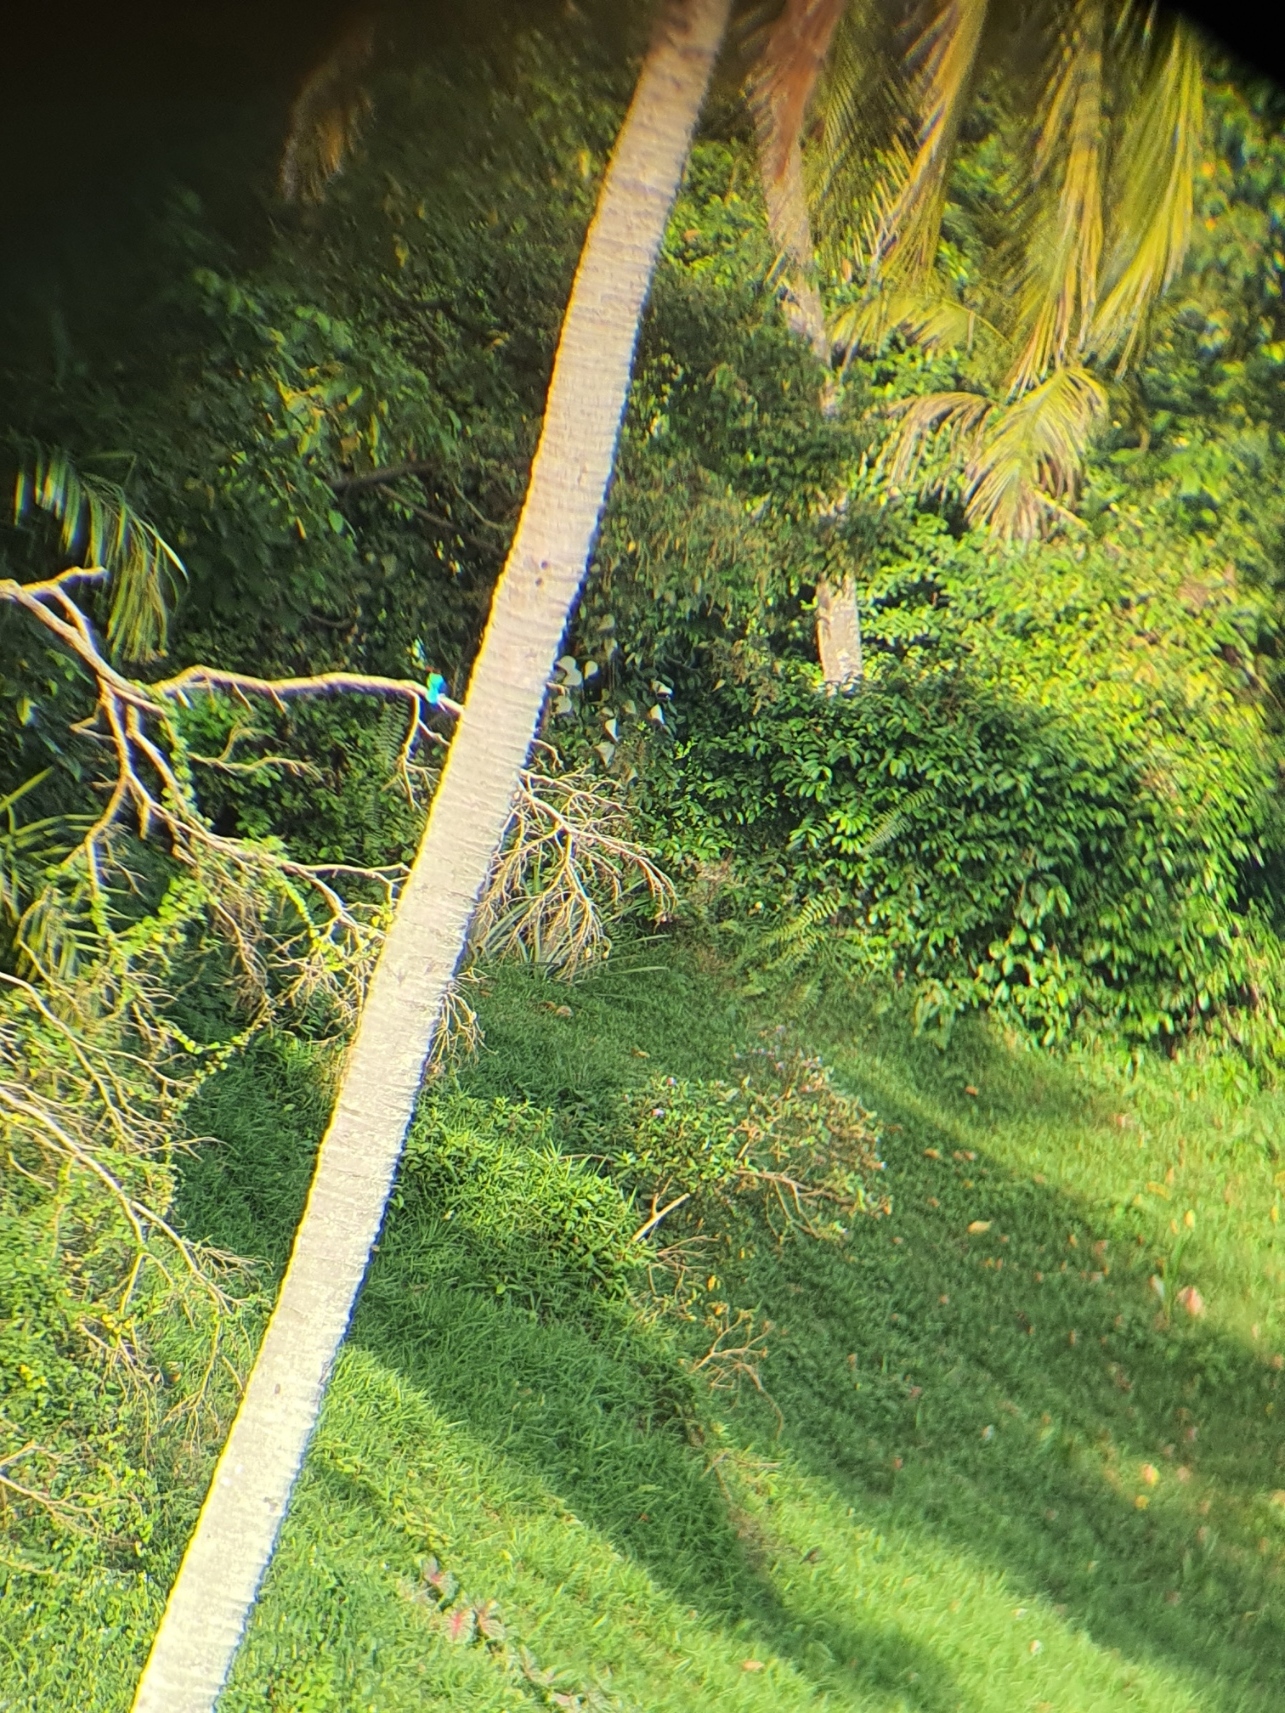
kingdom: Animalia
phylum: Chordata
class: Aves
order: Coraciiformes
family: Alcedinidae
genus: Halcyon
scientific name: Halcyon smyrnensis
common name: White-throated kingfisher
